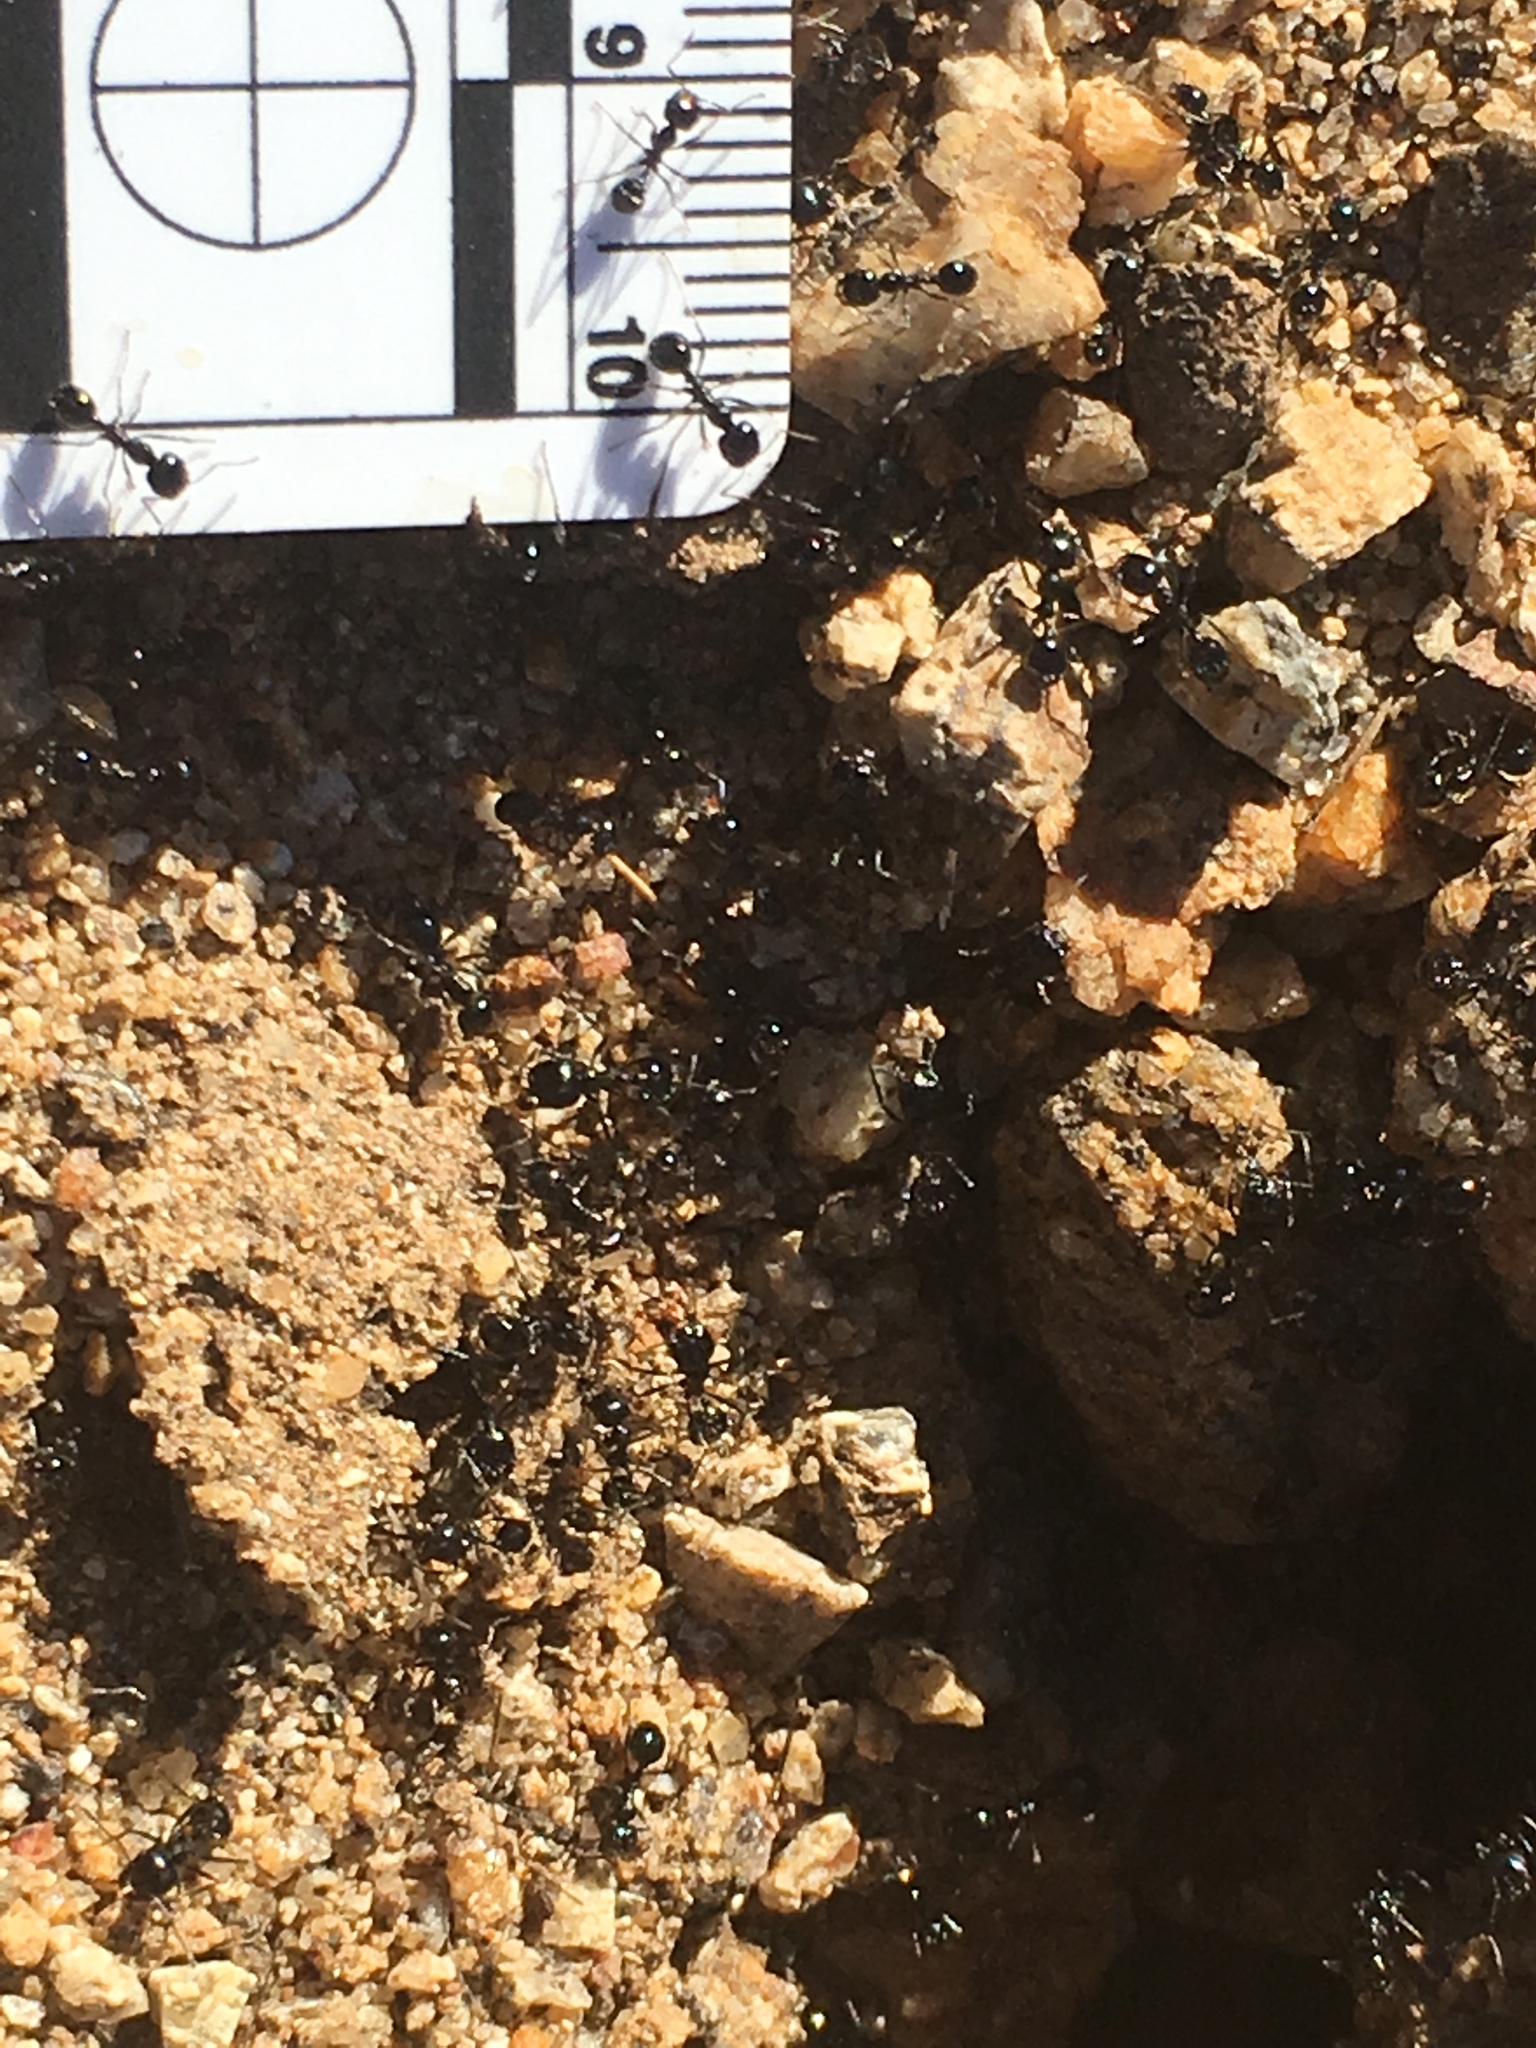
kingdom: Animalia
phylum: Arthropoda
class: Insecta
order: Hymenoptera
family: Formicidae
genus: Messor
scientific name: Messor pergandei
